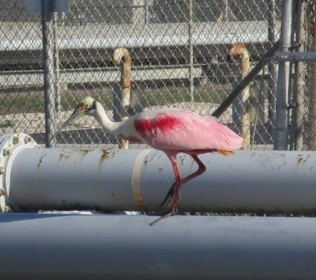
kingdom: Animalia
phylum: Chordata
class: Aves
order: Pelecaniformes
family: Threskiornithidae
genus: Platalea
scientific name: Platalea ajaja
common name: Roseate spoonbill
